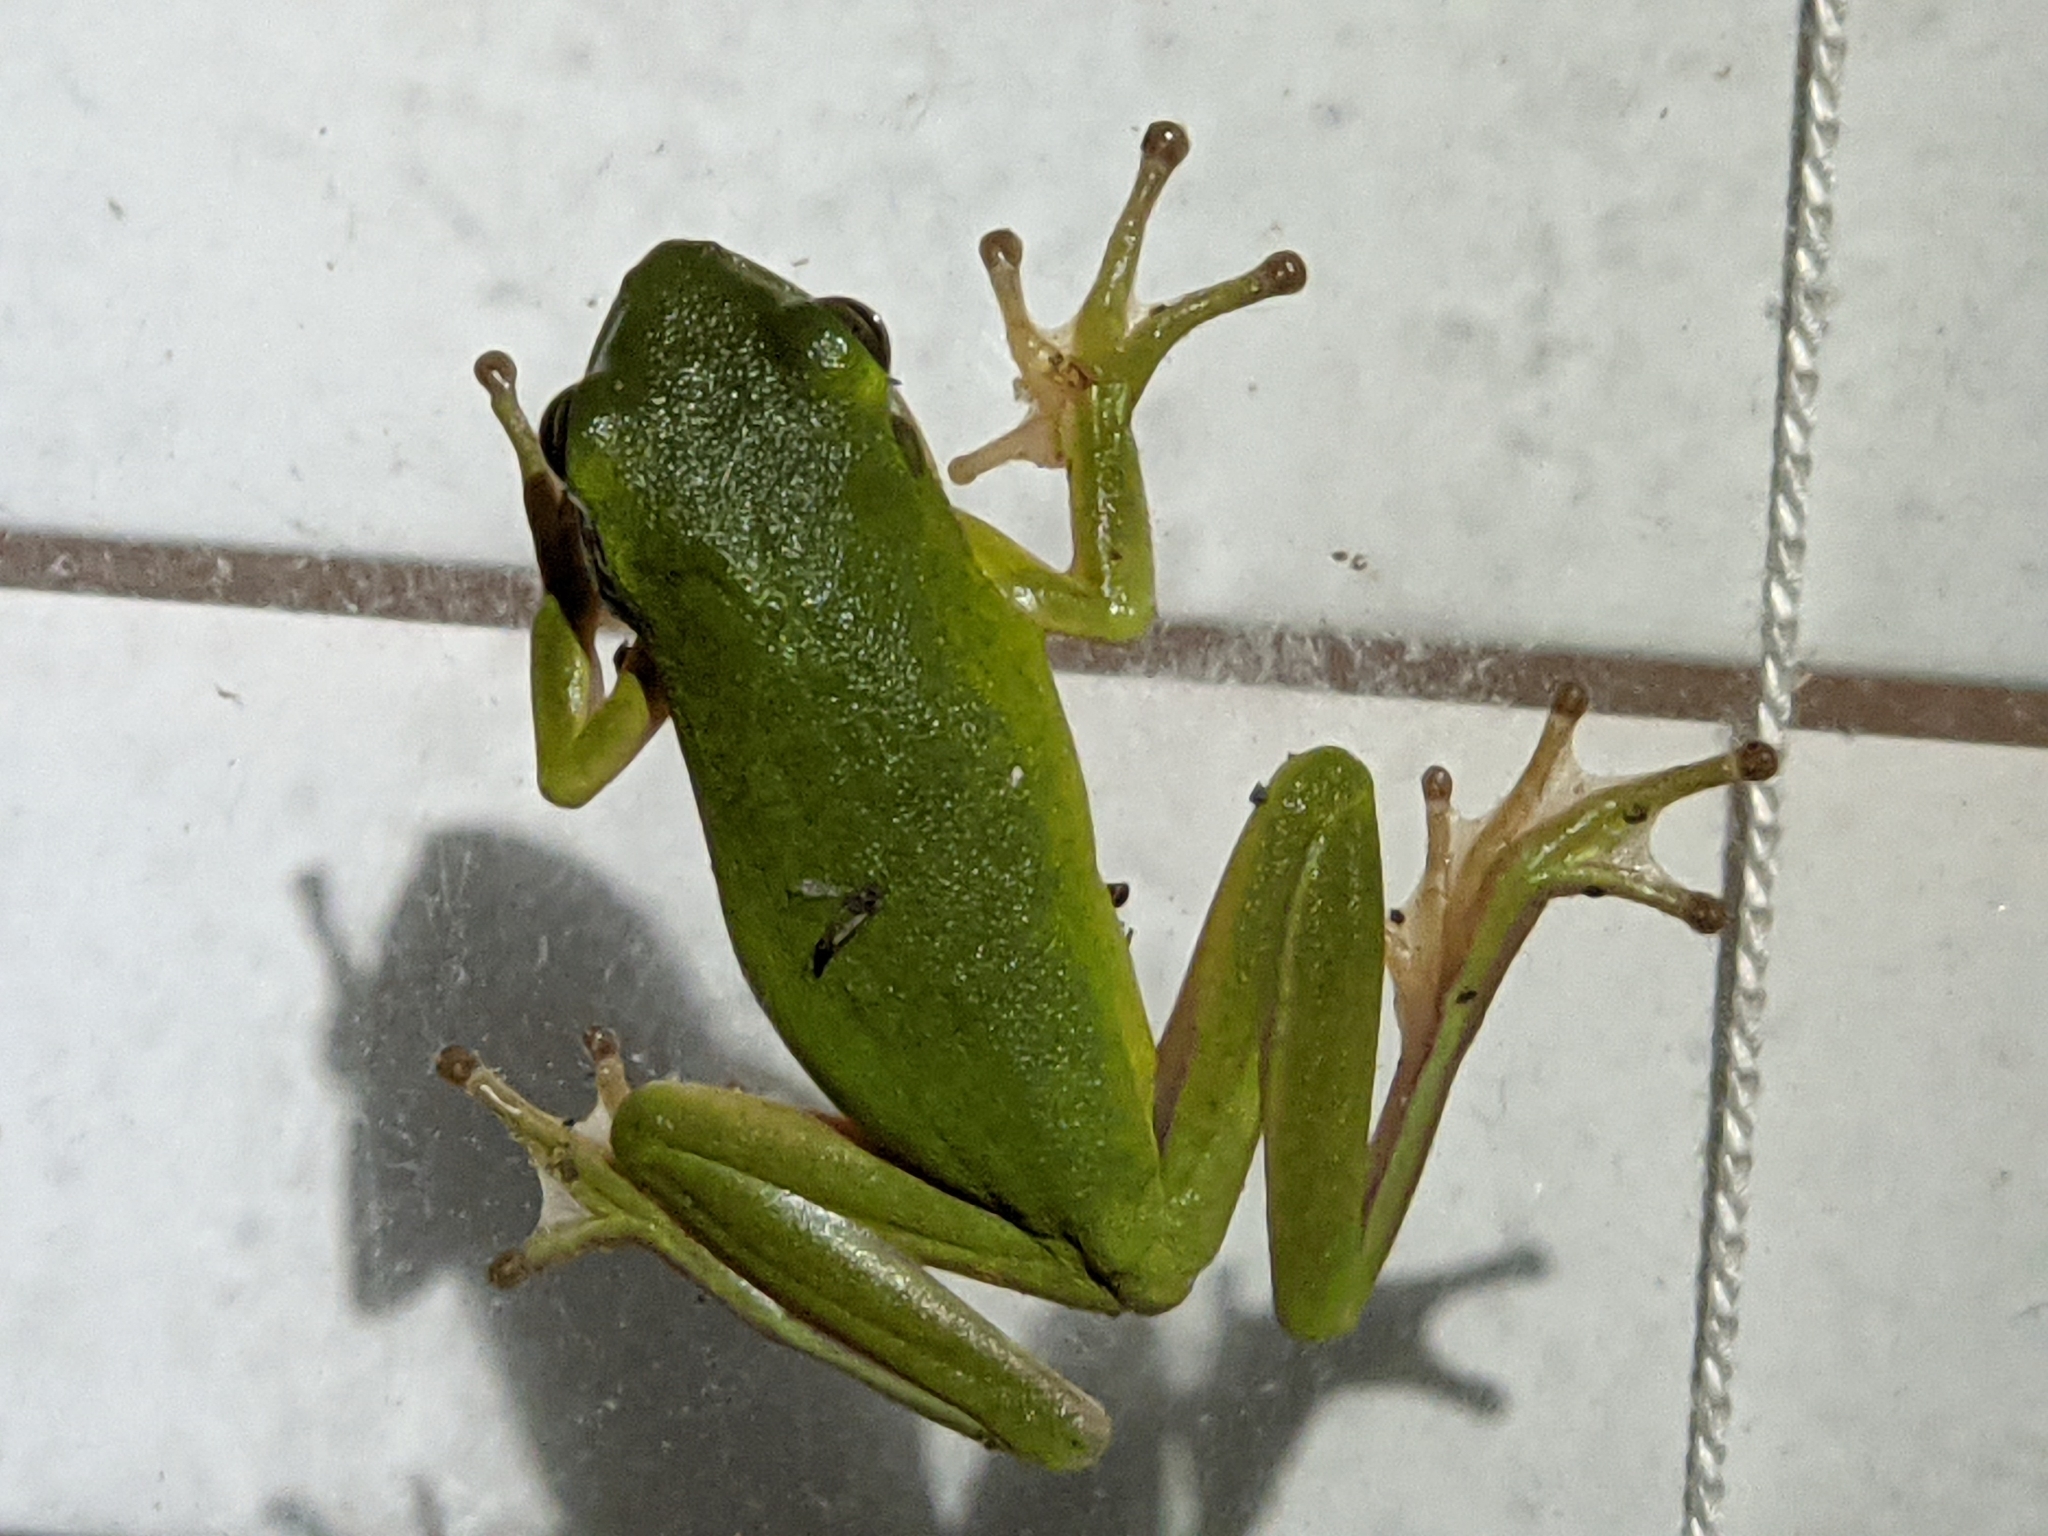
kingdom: Animalia
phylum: Chordata
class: Amphibia
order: Anura
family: Hylidae
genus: Dryophytes
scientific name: Dryophytes cinereus
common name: Green treefrog
